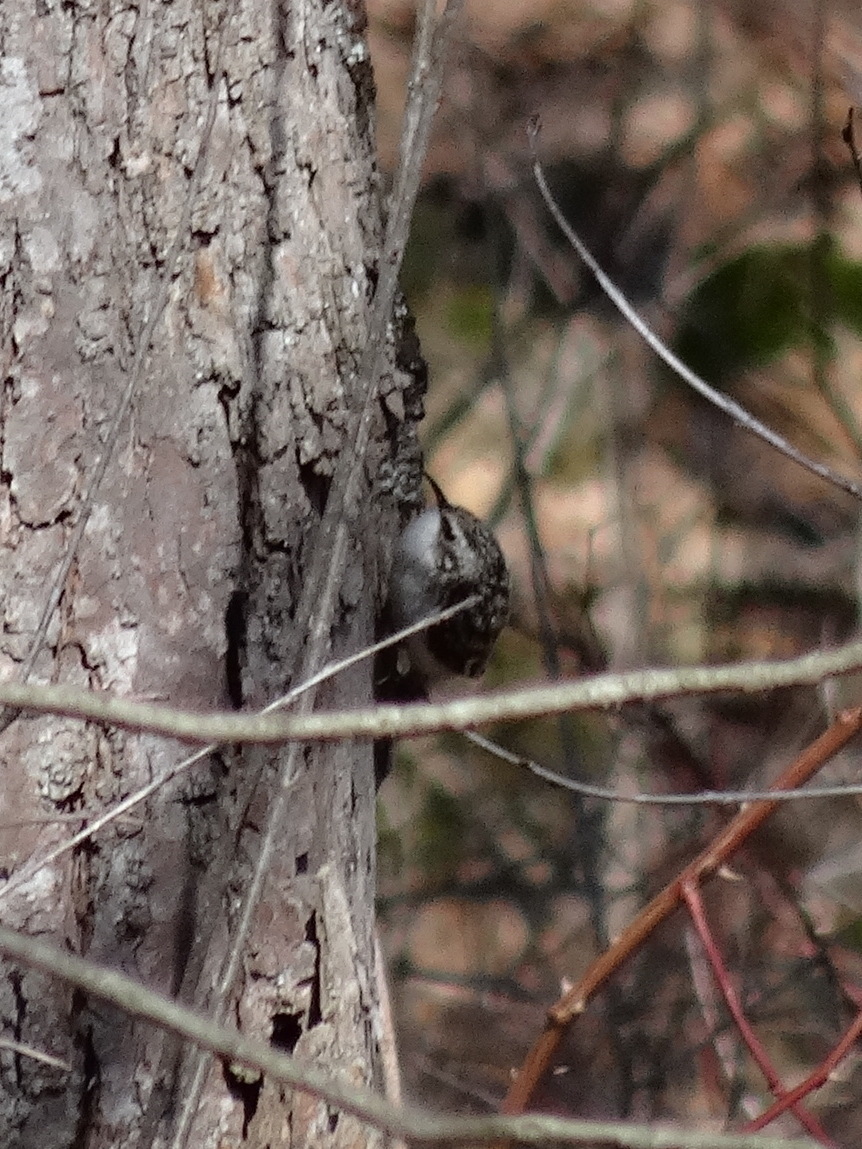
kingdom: Animalia
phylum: Chordata
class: Aves
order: Passeriformes
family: Certhiidae
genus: Certhia
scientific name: Certhia americana
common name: Brown creeper
